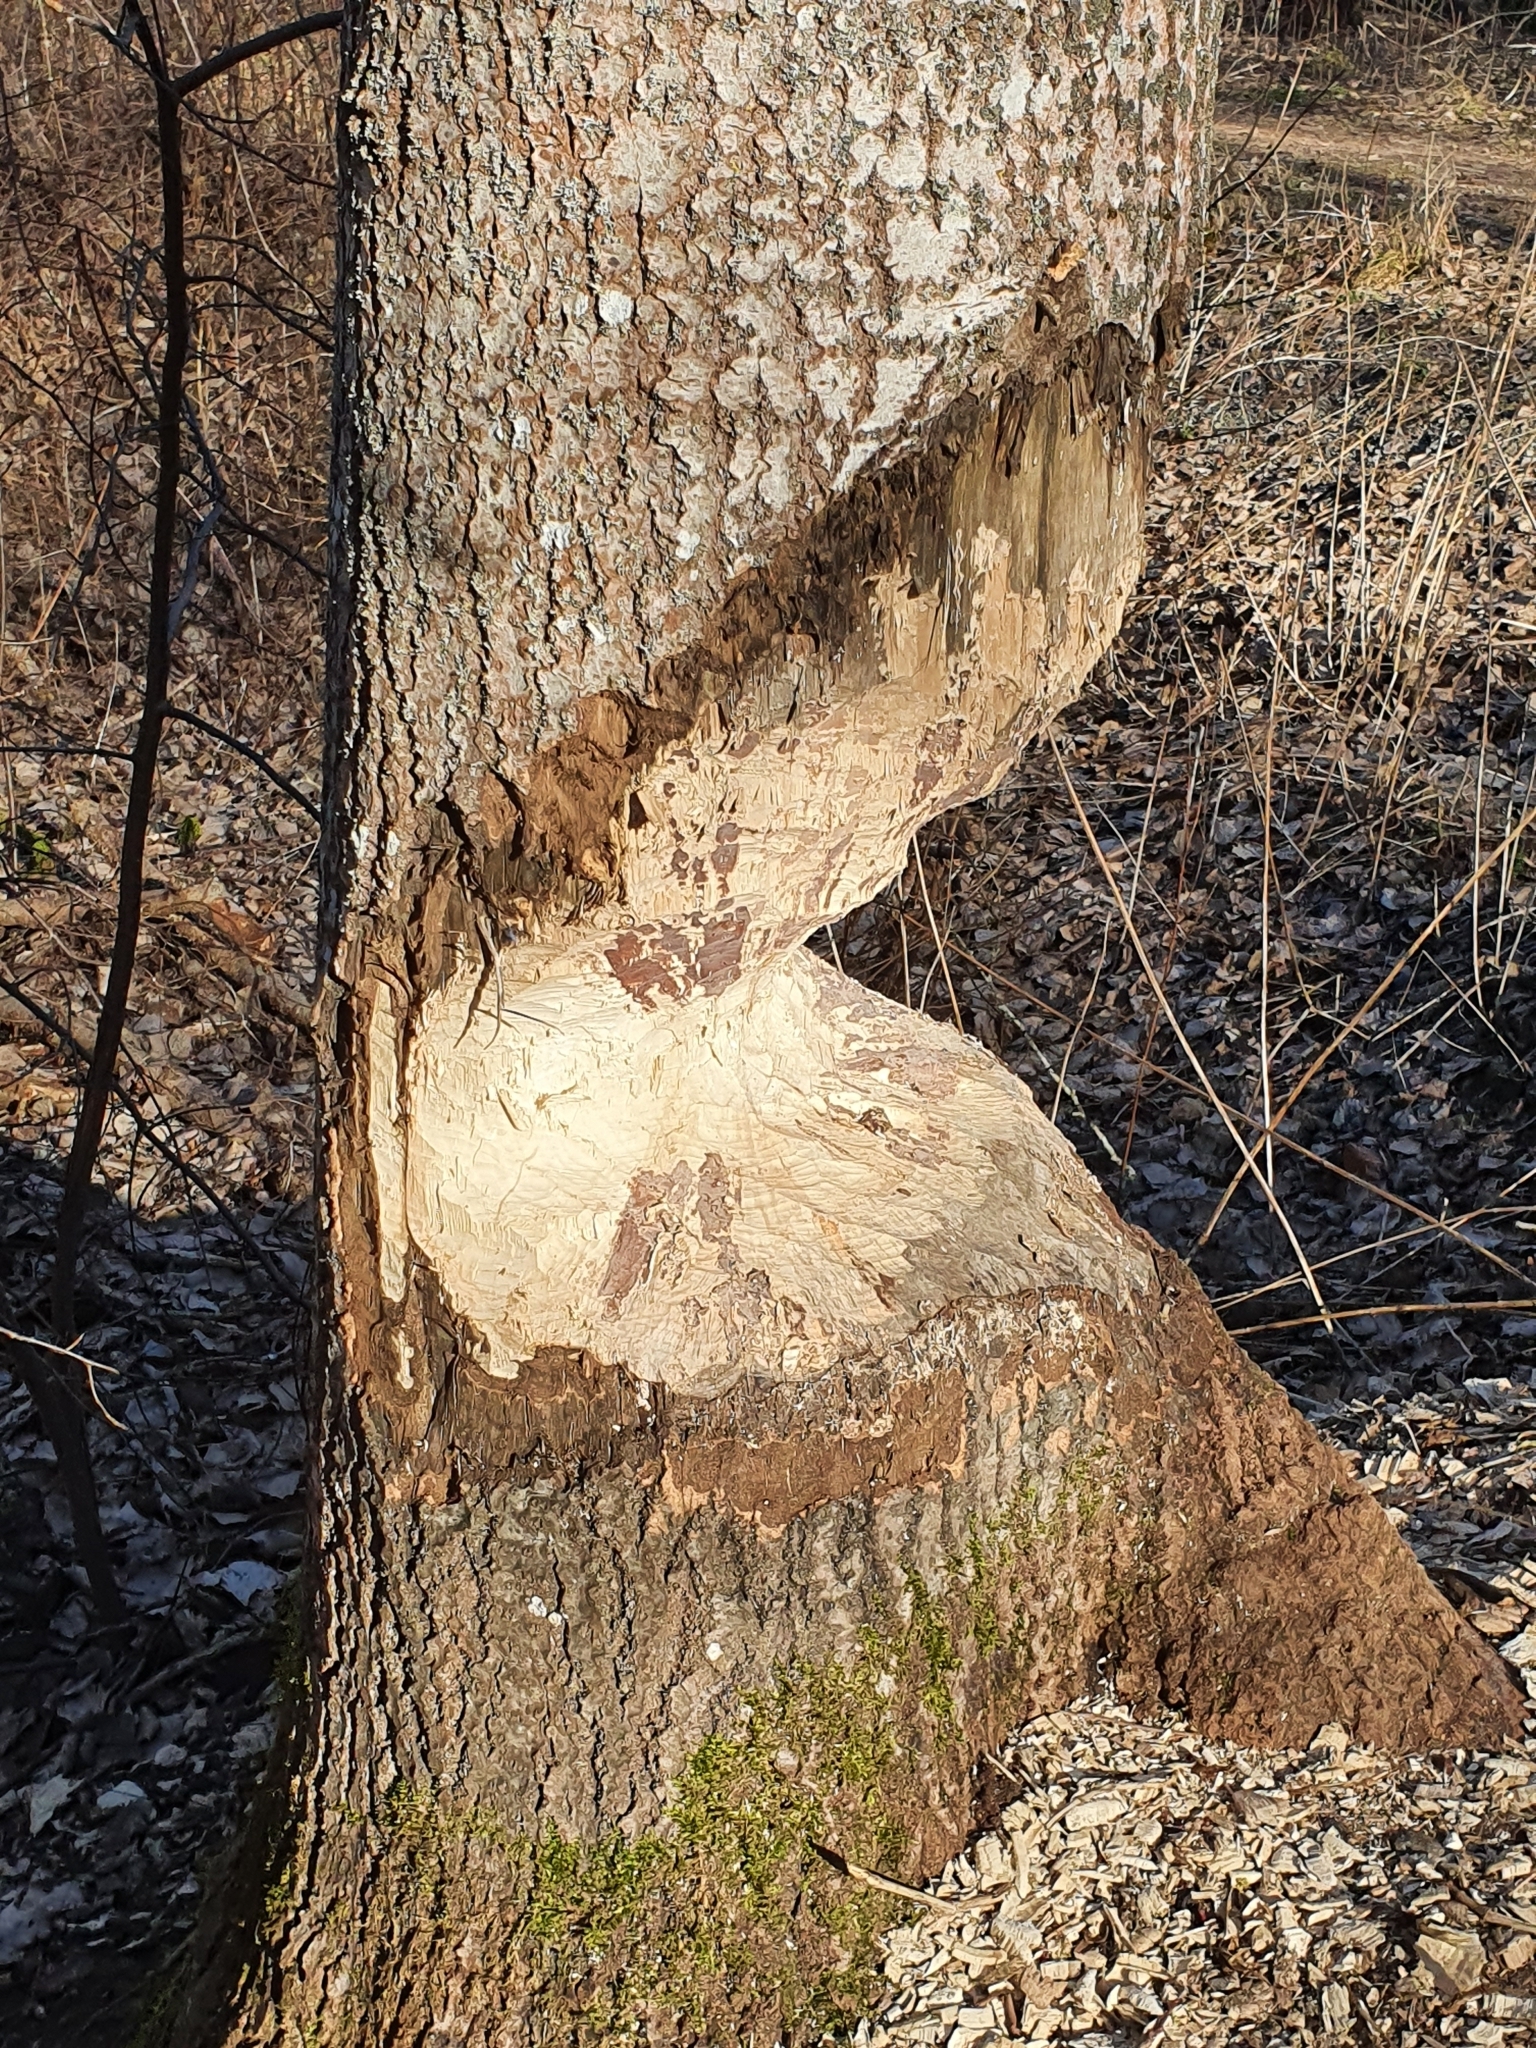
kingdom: Animalia
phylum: Chordata
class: Mammalia
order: Rodentia
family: Castoridae
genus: Castor
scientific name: Castor fiber
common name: Eurasian beaver
